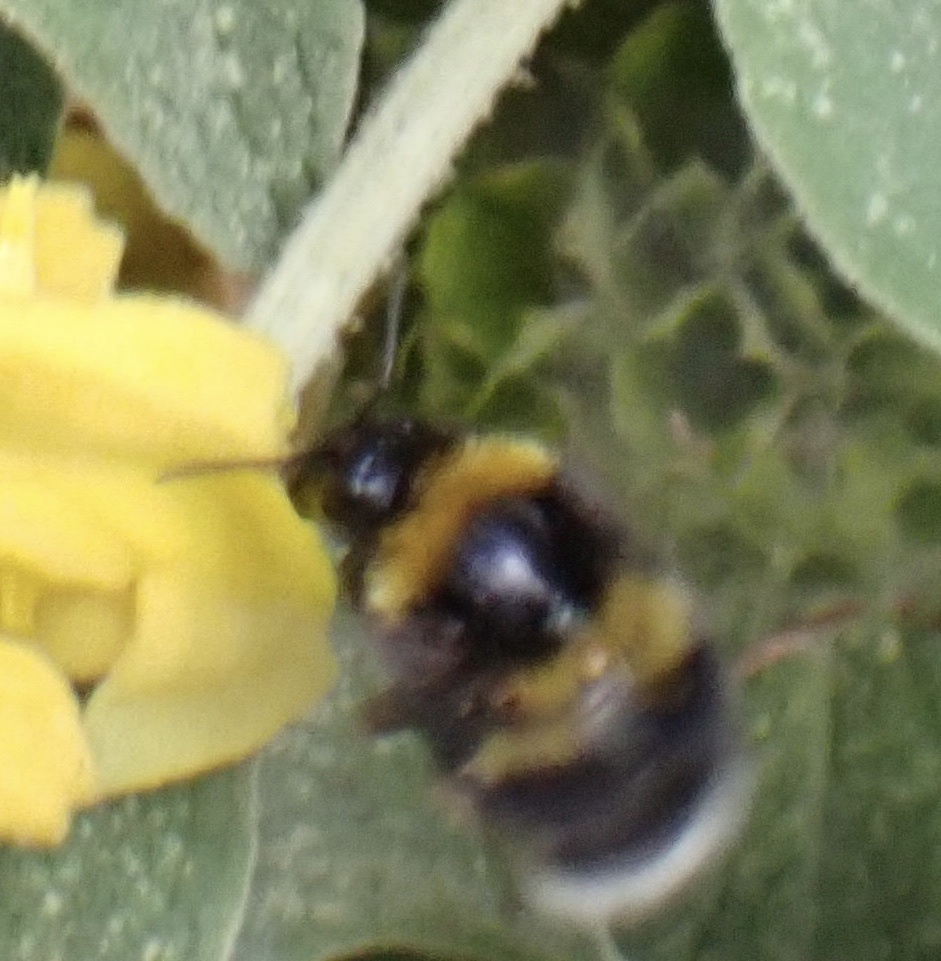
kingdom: Animalia
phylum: Arthropoda
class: Insecta
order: Hymenoptera
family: Apidae
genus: Bombus
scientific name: Bombus hortorum
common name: Garden bumblebee
